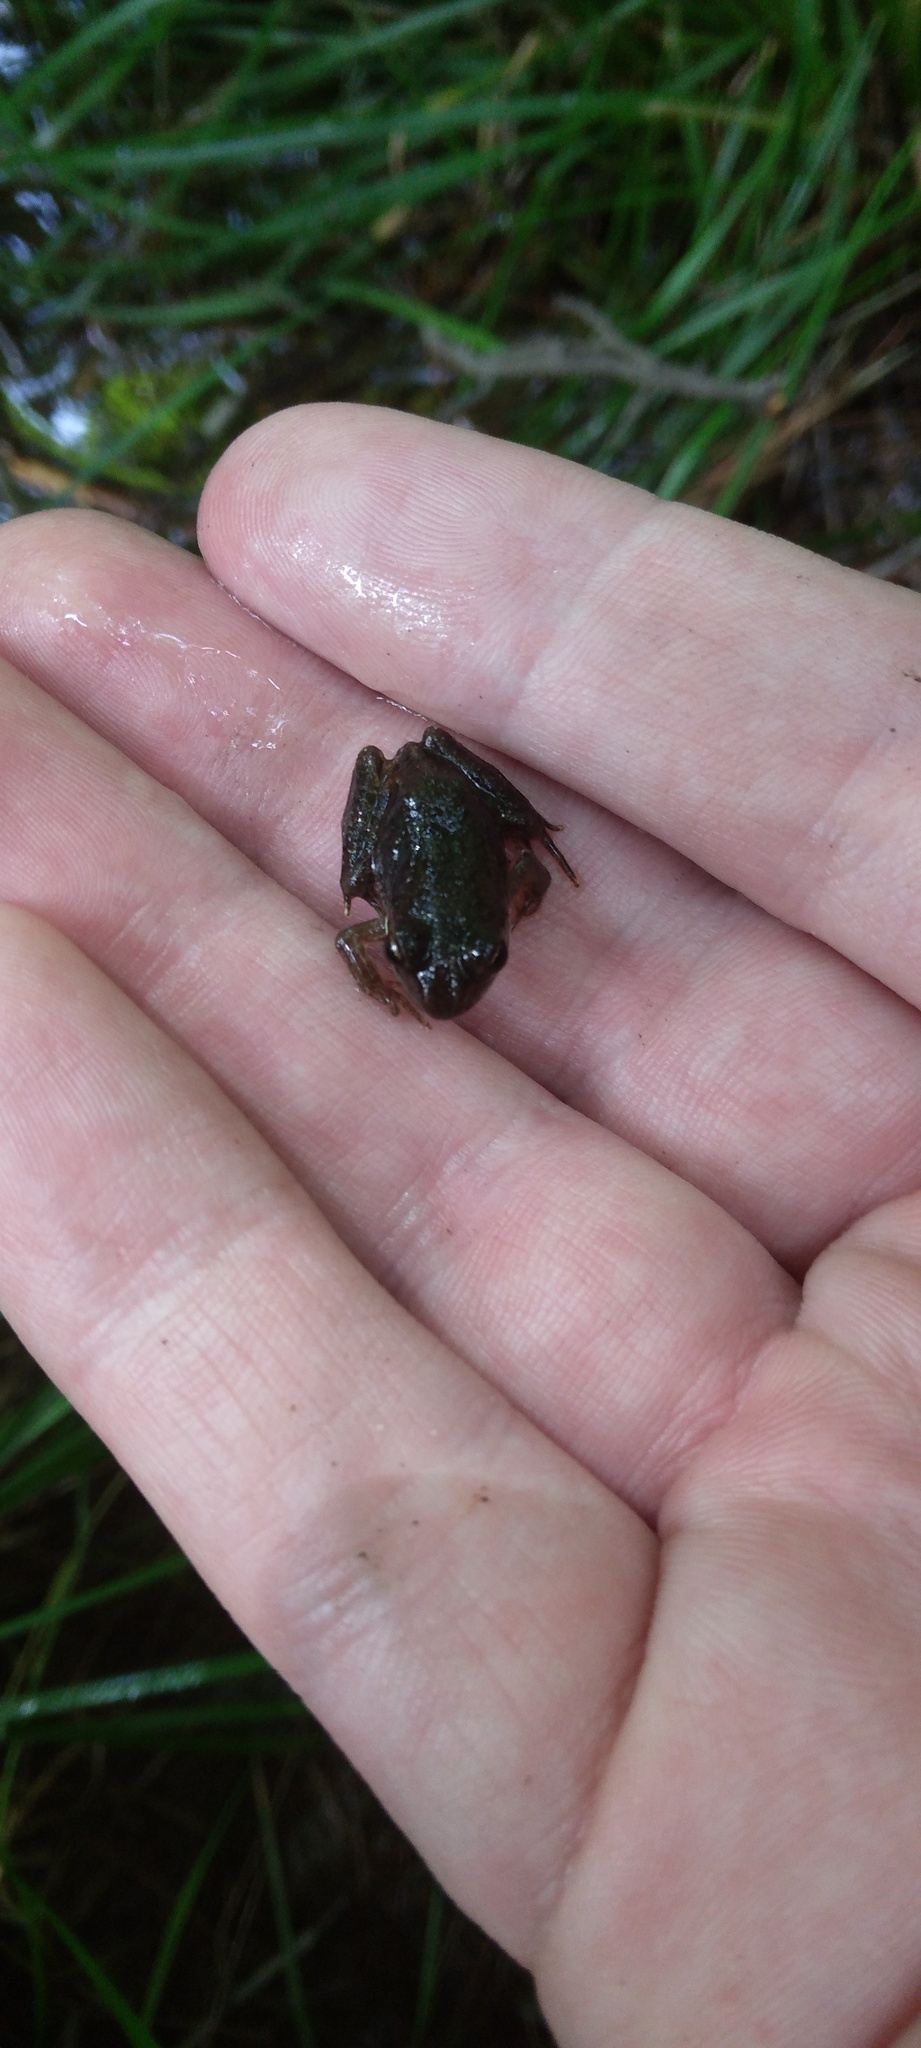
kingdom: Animalia
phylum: Chordata
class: Amphibia
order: Anura
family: Ranidae
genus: Lithobates
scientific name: Lithobates sylvaticus
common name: Wood frog
